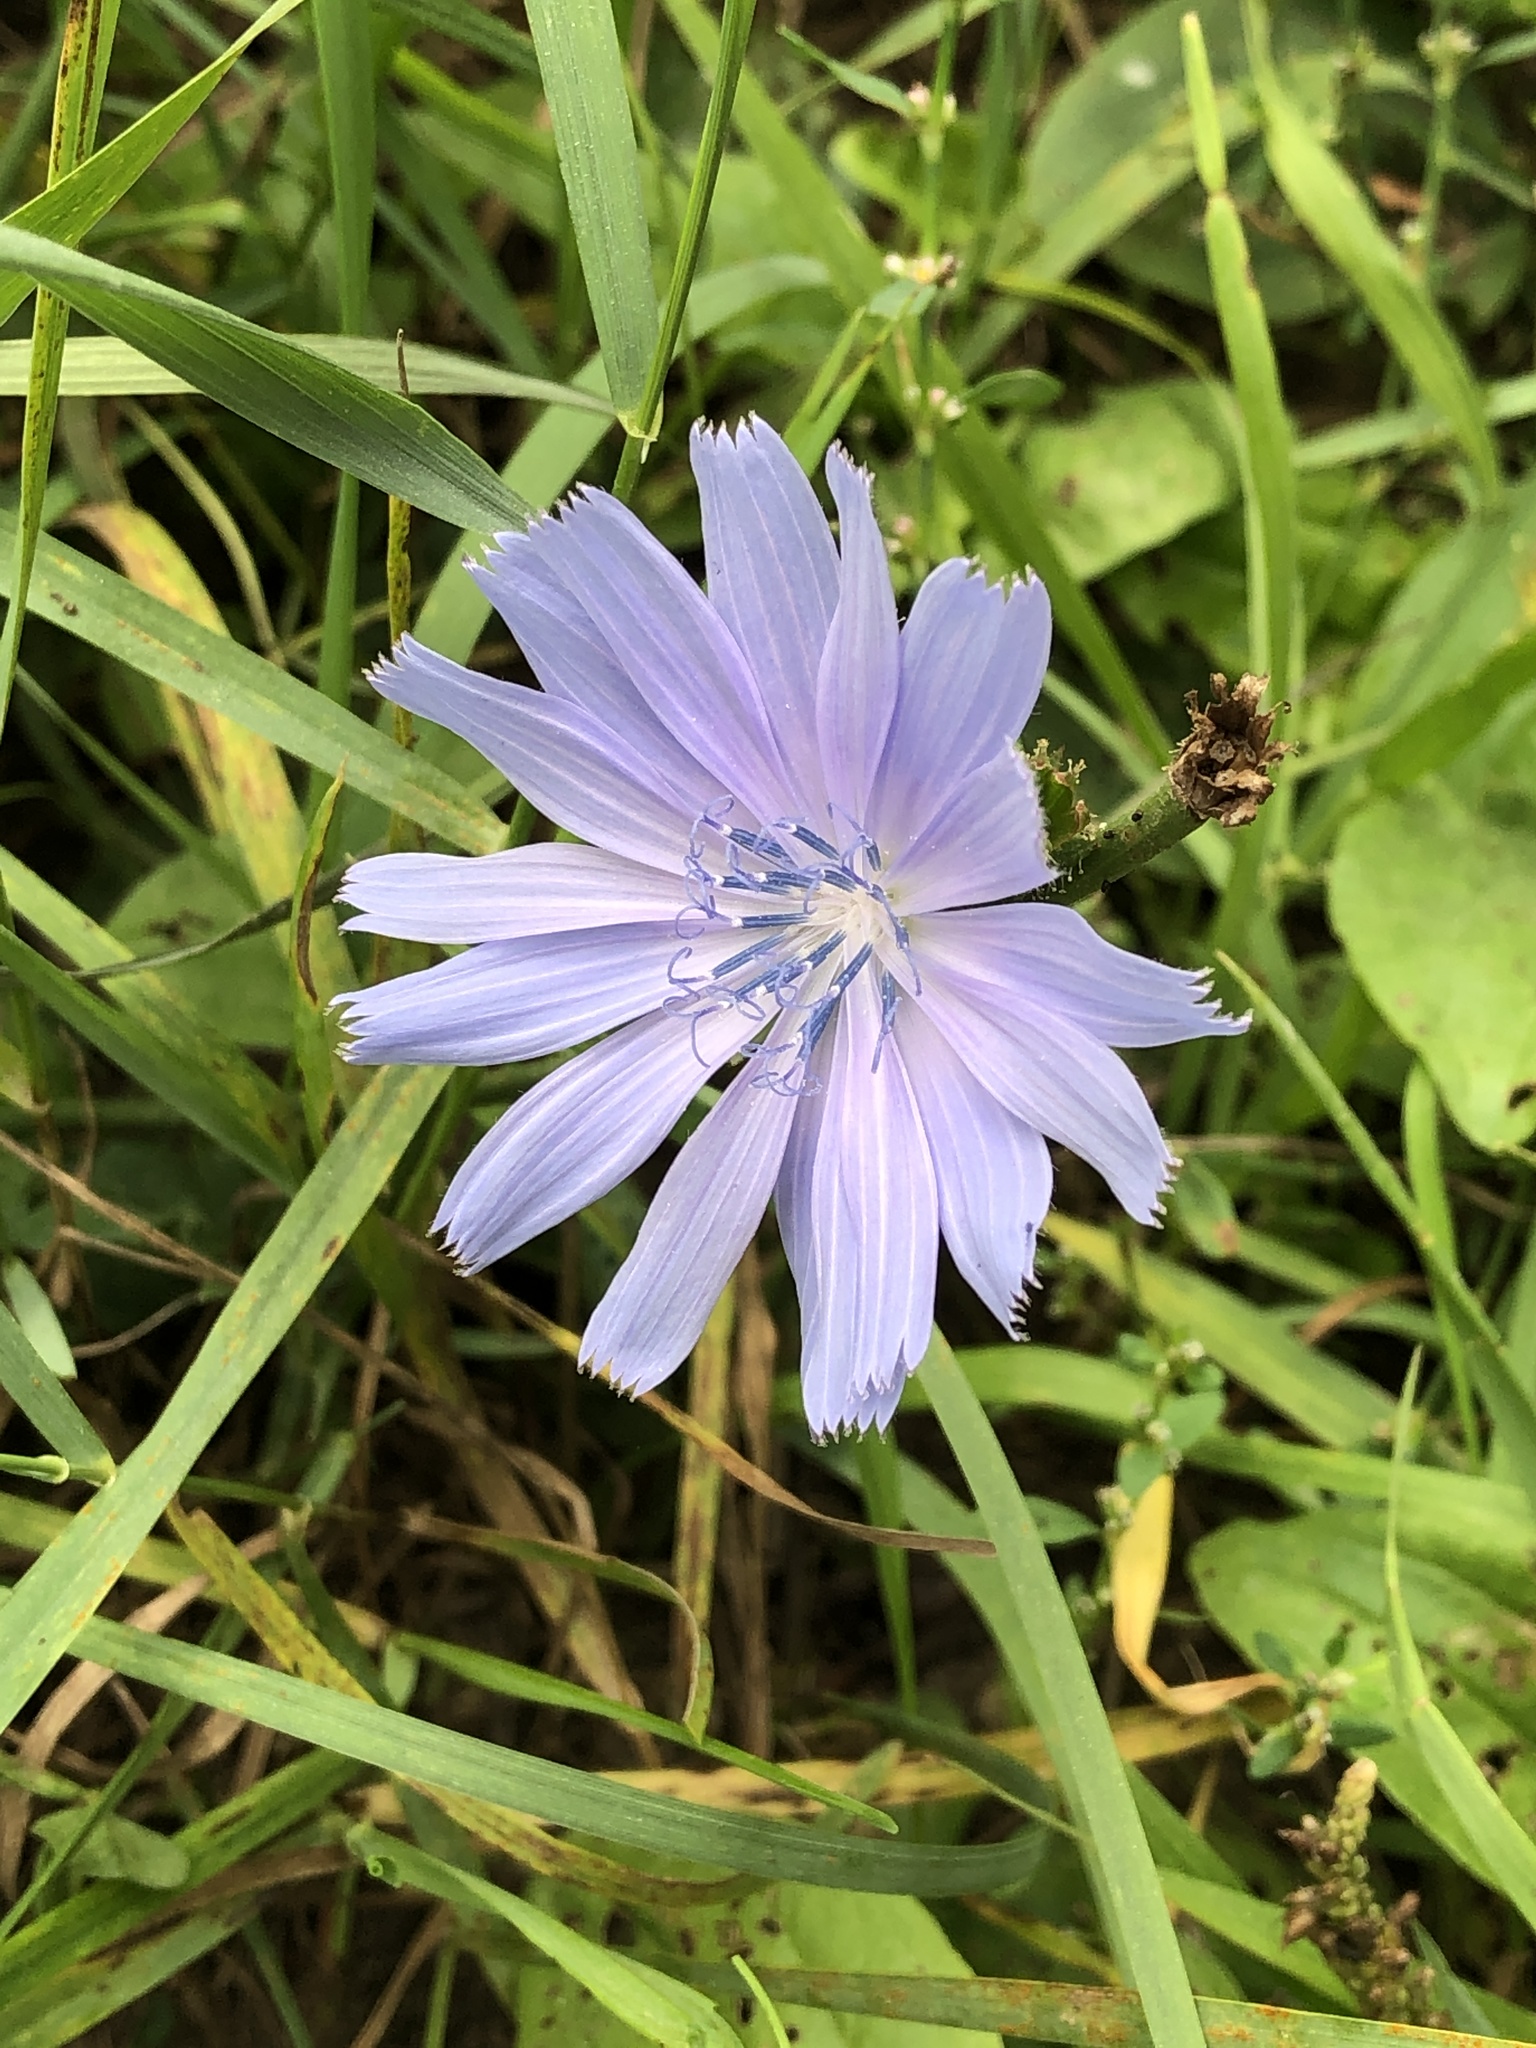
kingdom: Plantae
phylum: Tracheophyta
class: Magnoliopsida
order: Asterales
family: Asteraceae
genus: Cichorium
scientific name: Cichorium intybus
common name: Chicory
